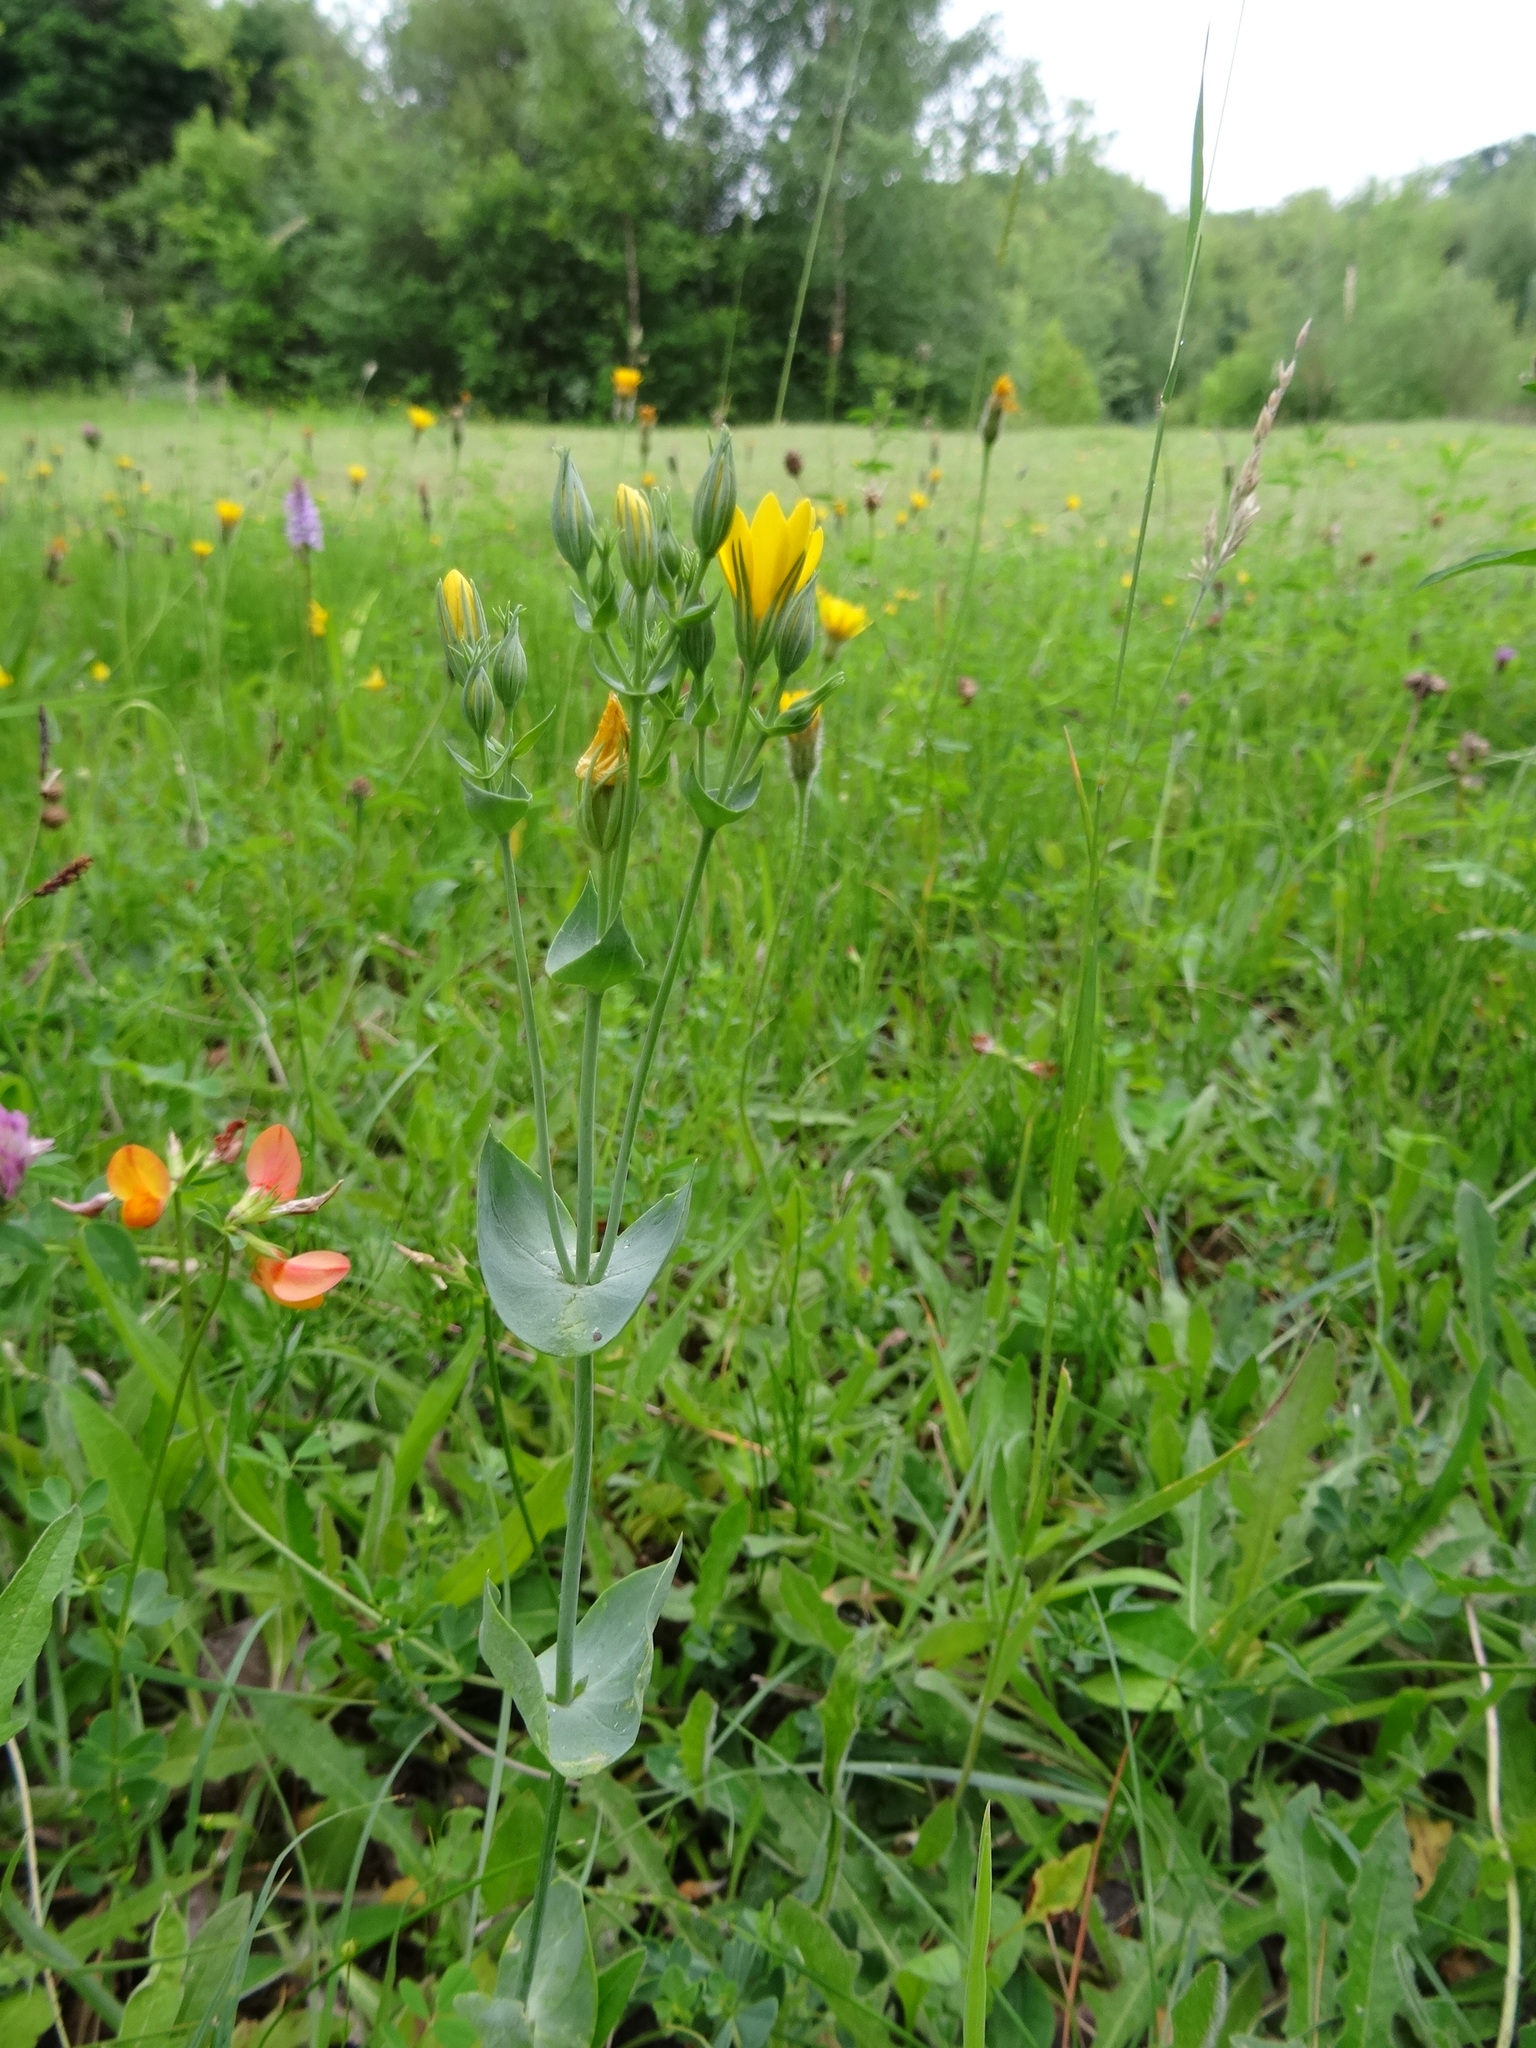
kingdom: Plantae
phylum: Tracheophyta
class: Magnoliopsida
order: Gentianales
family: Gentianaceae
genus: Blackstonia
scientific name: Blackstonia perfoliata
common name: Yellow-wort
